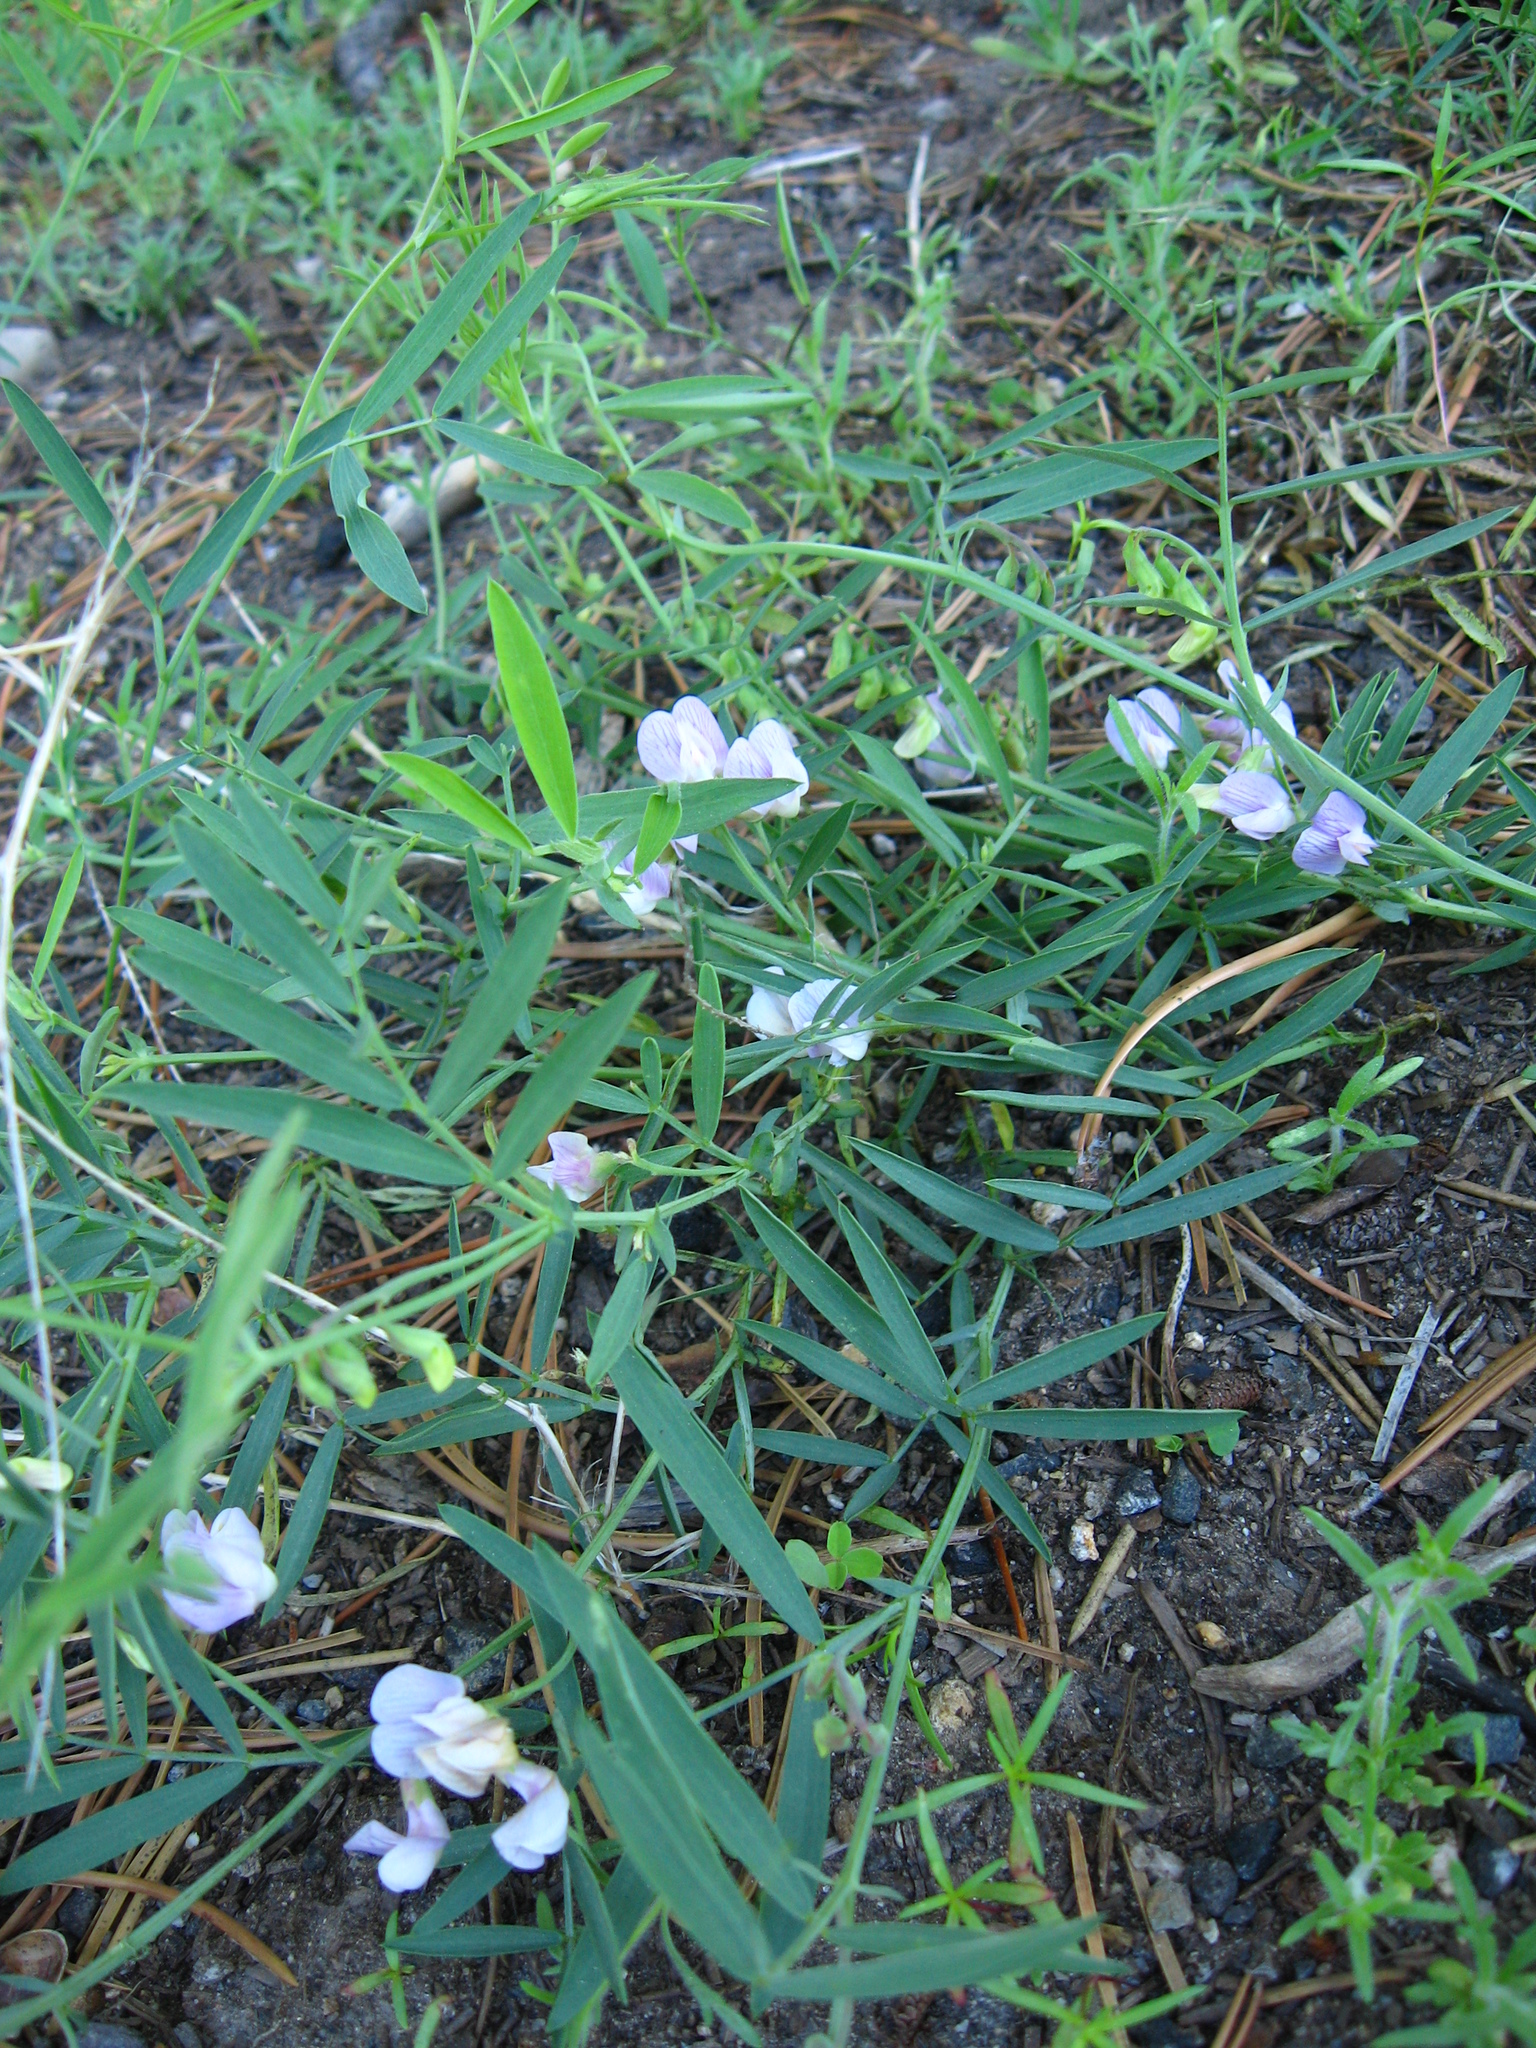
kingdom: Plantae
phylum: Tracheophyta
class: Magnoliopsida
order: Fabales
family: Fabaceae
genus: Lathyrus
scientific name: Lathyrus lanszwertii
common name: Lanszwert's vetchling
